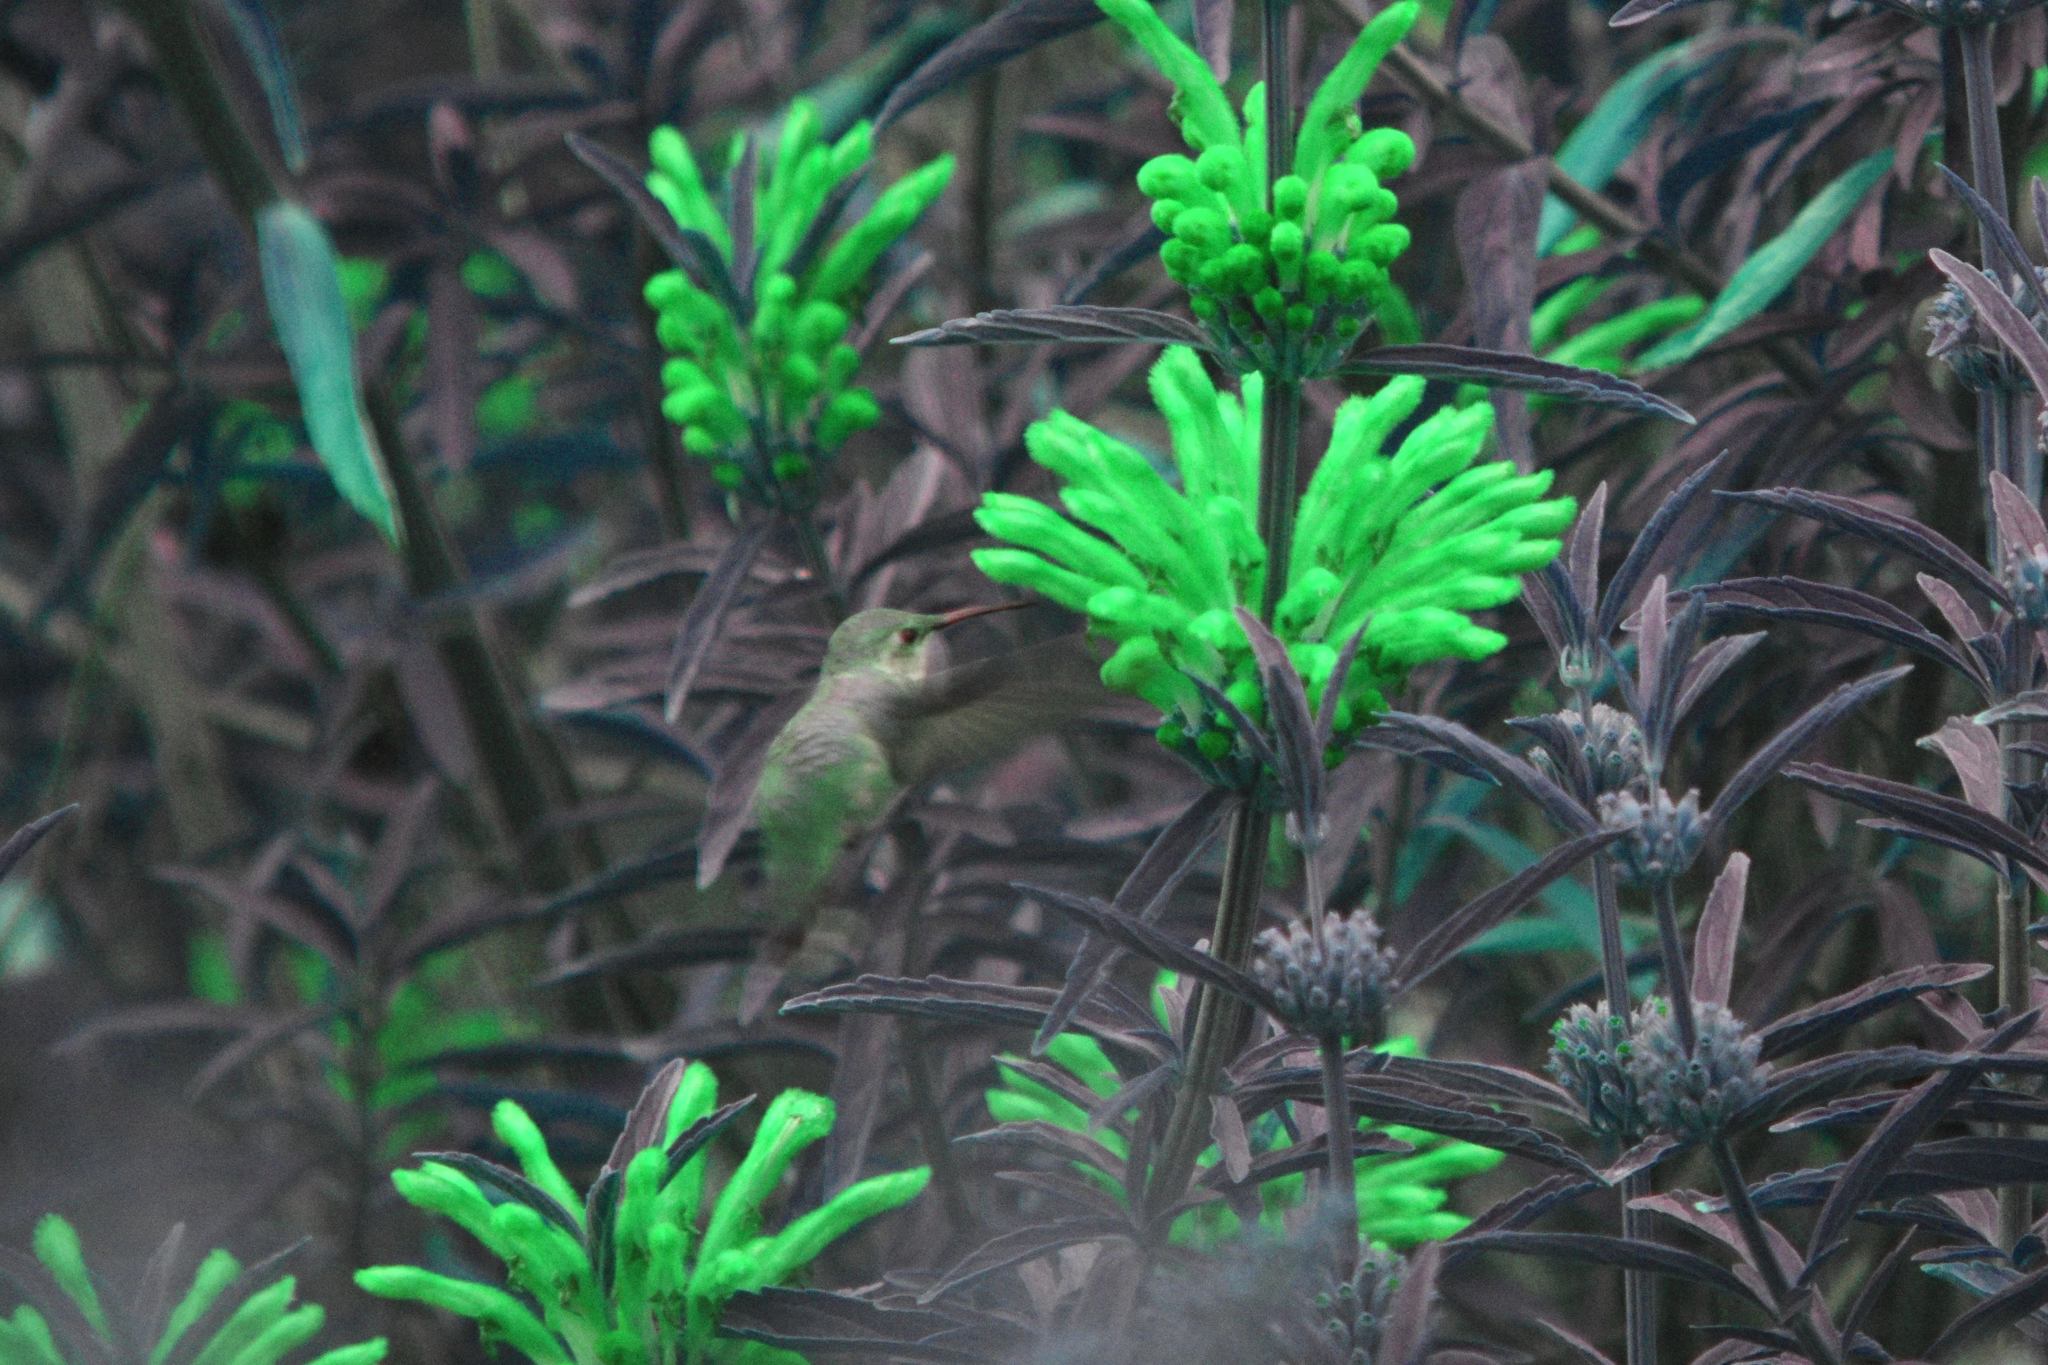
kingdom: Animalia
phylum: Chordata
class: Aves
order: Apodiformes
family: Trochilidae
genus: Selasphorus
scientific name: Selasphorus
